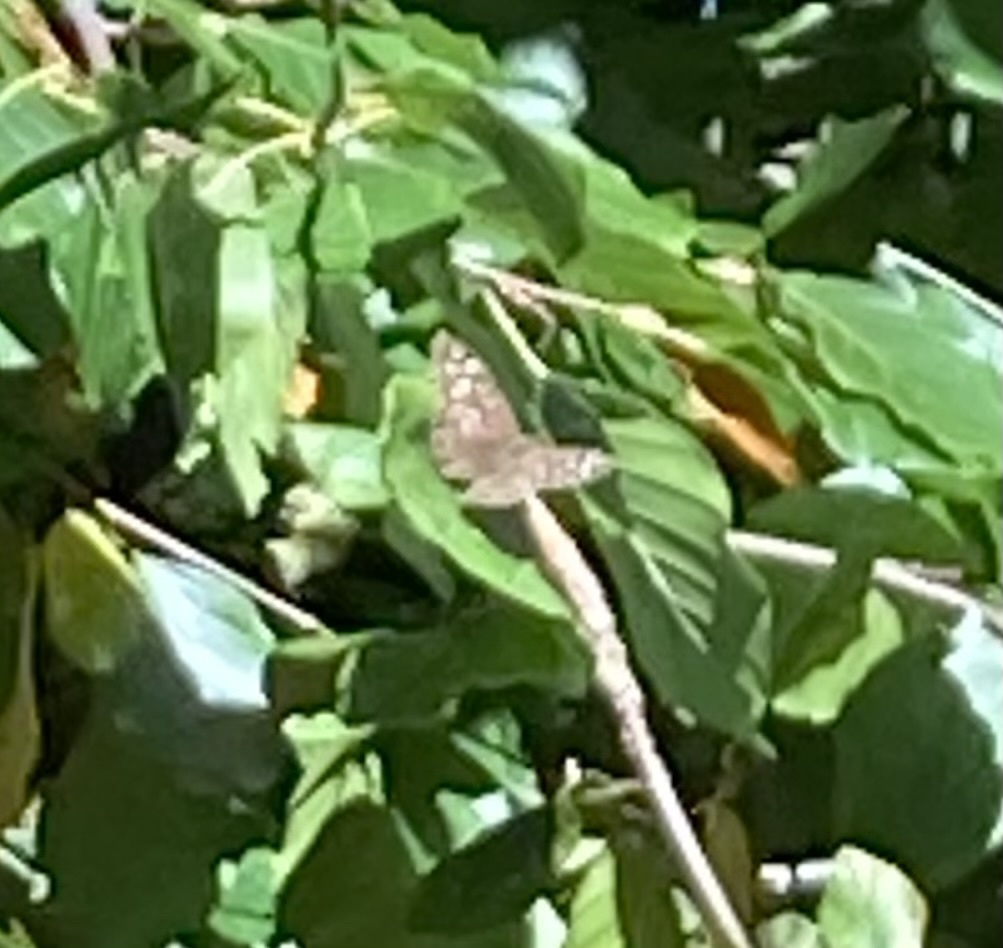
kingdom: Animalia
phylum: Arthropoda
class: Insecta
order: Lepidoptera
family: Nymphalidae
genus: Pararge
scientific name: Pararge aegeria
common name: Speckled wood
